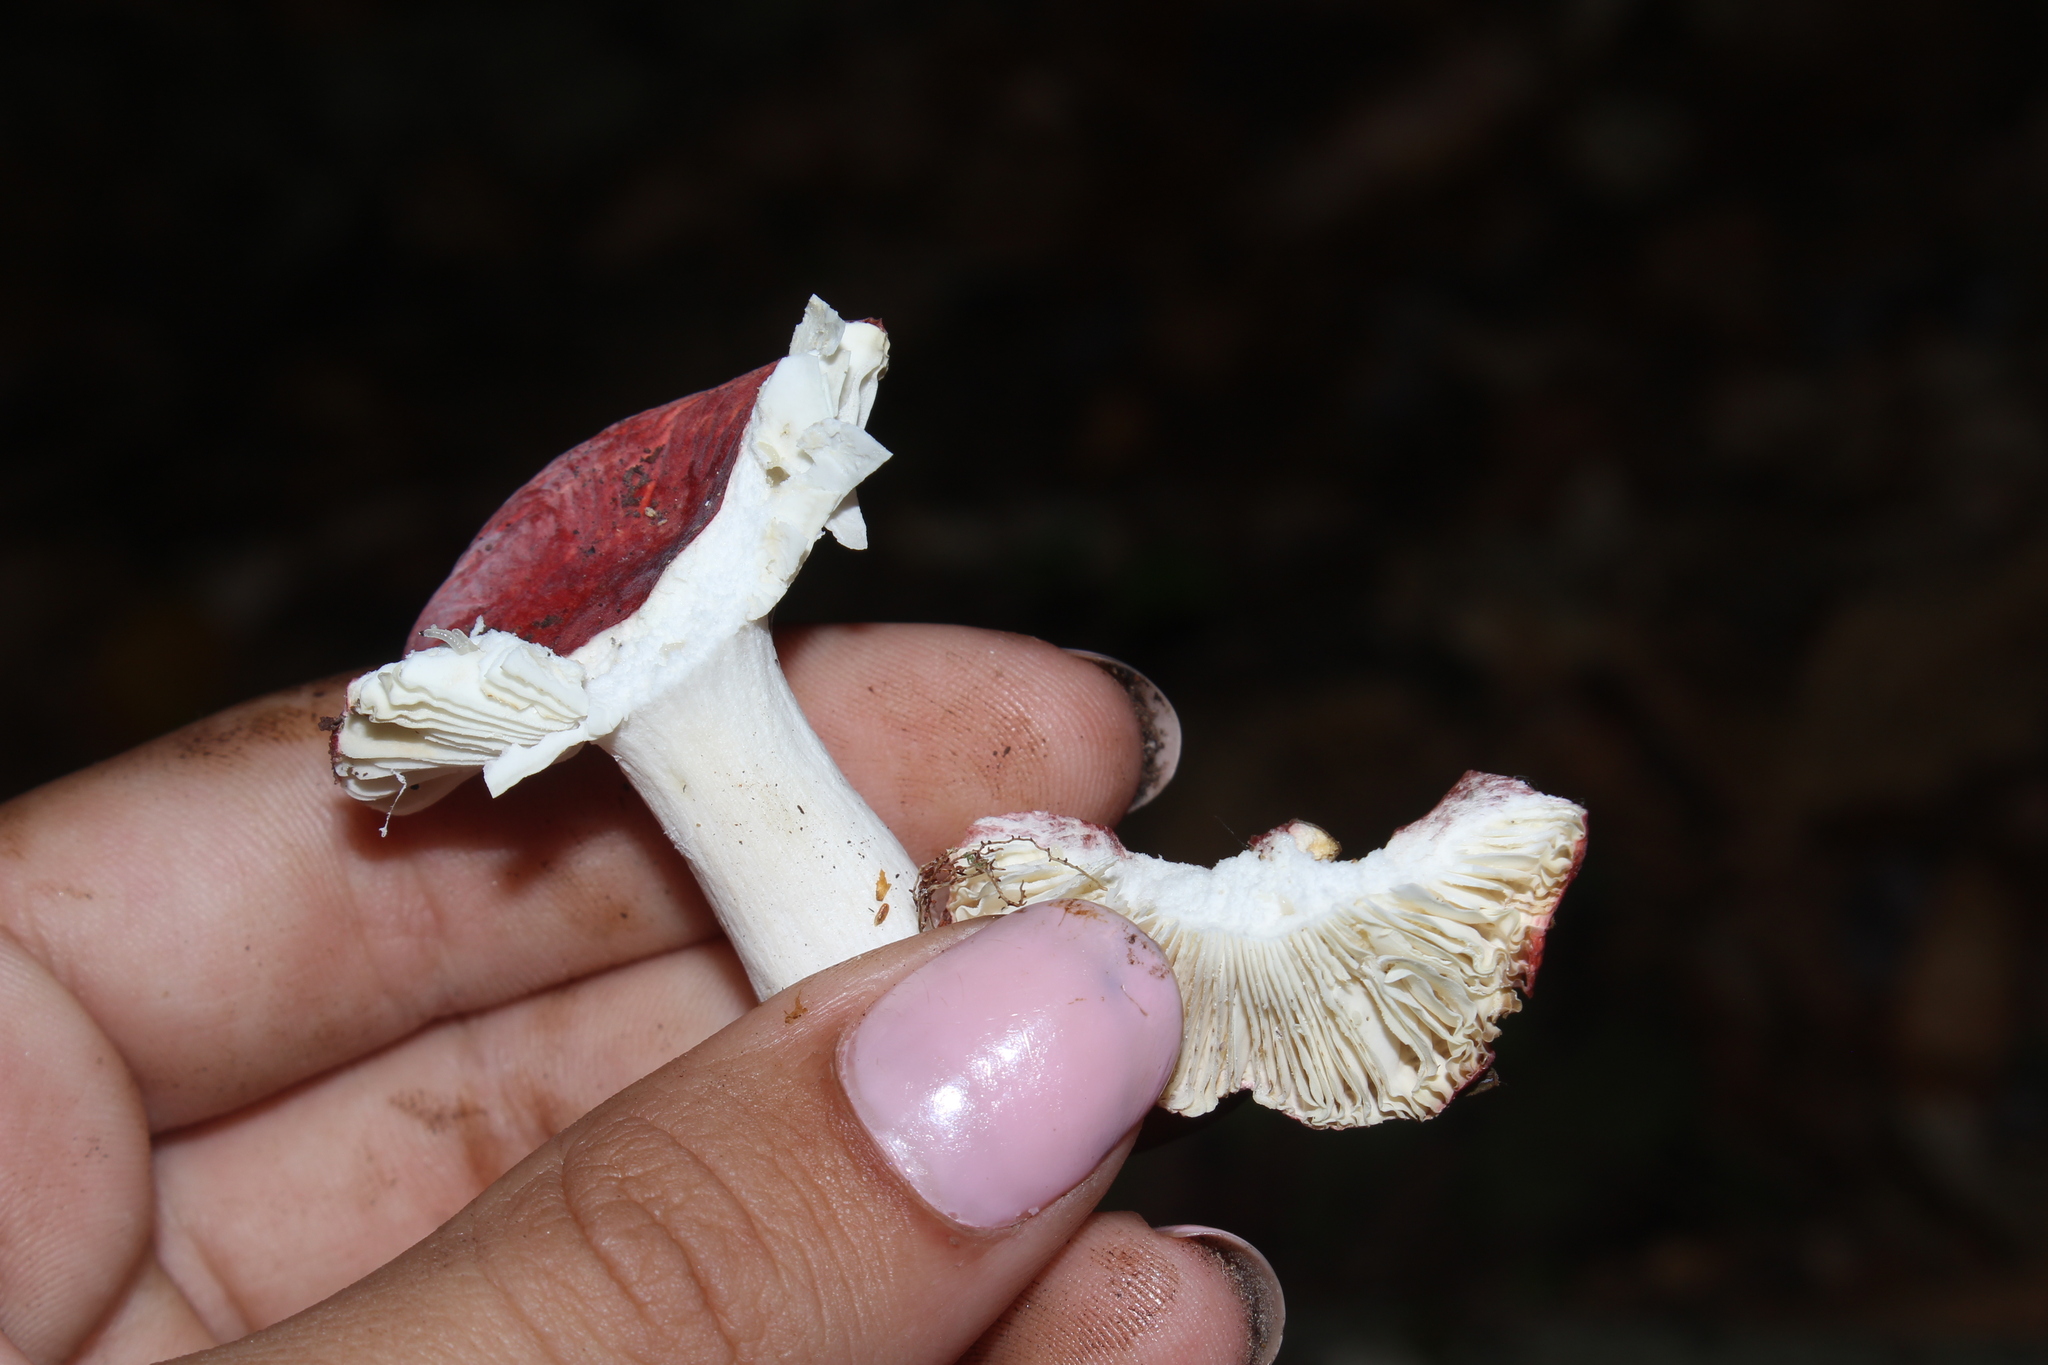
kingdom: Fungi
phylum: Basidiomycota
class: Agaricomycetes
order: Russulales
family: Russulaceae
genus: Russula
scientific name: Russula
